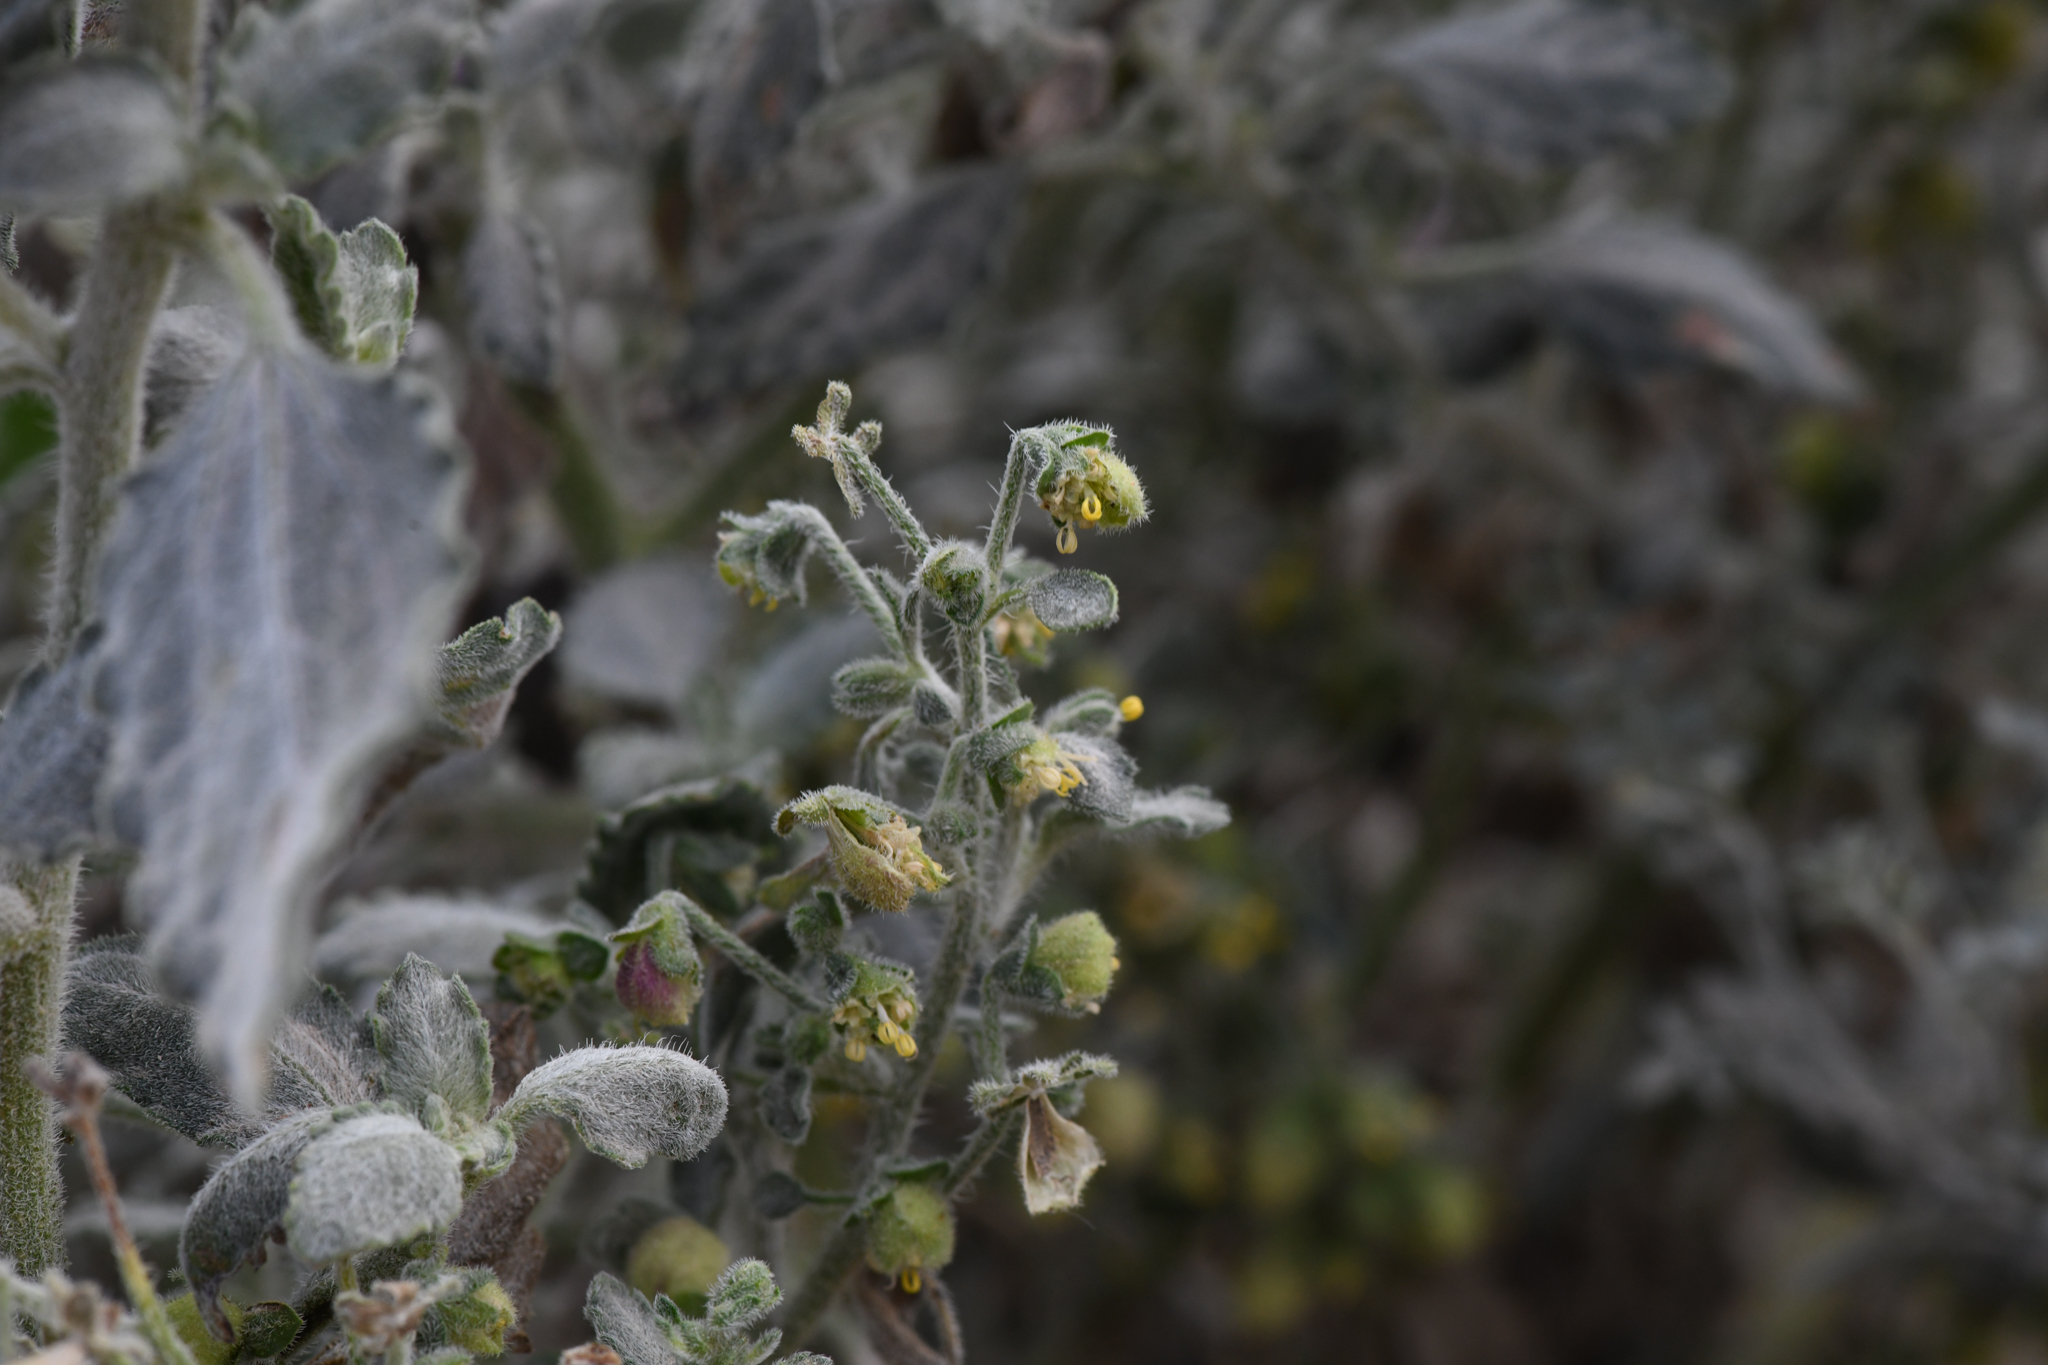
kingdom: Plantae
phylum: Tracheophyta
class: Magnoliopsida
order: Asterales
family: Asteraceae
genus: Dicoria
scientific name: Dicoria canescens
